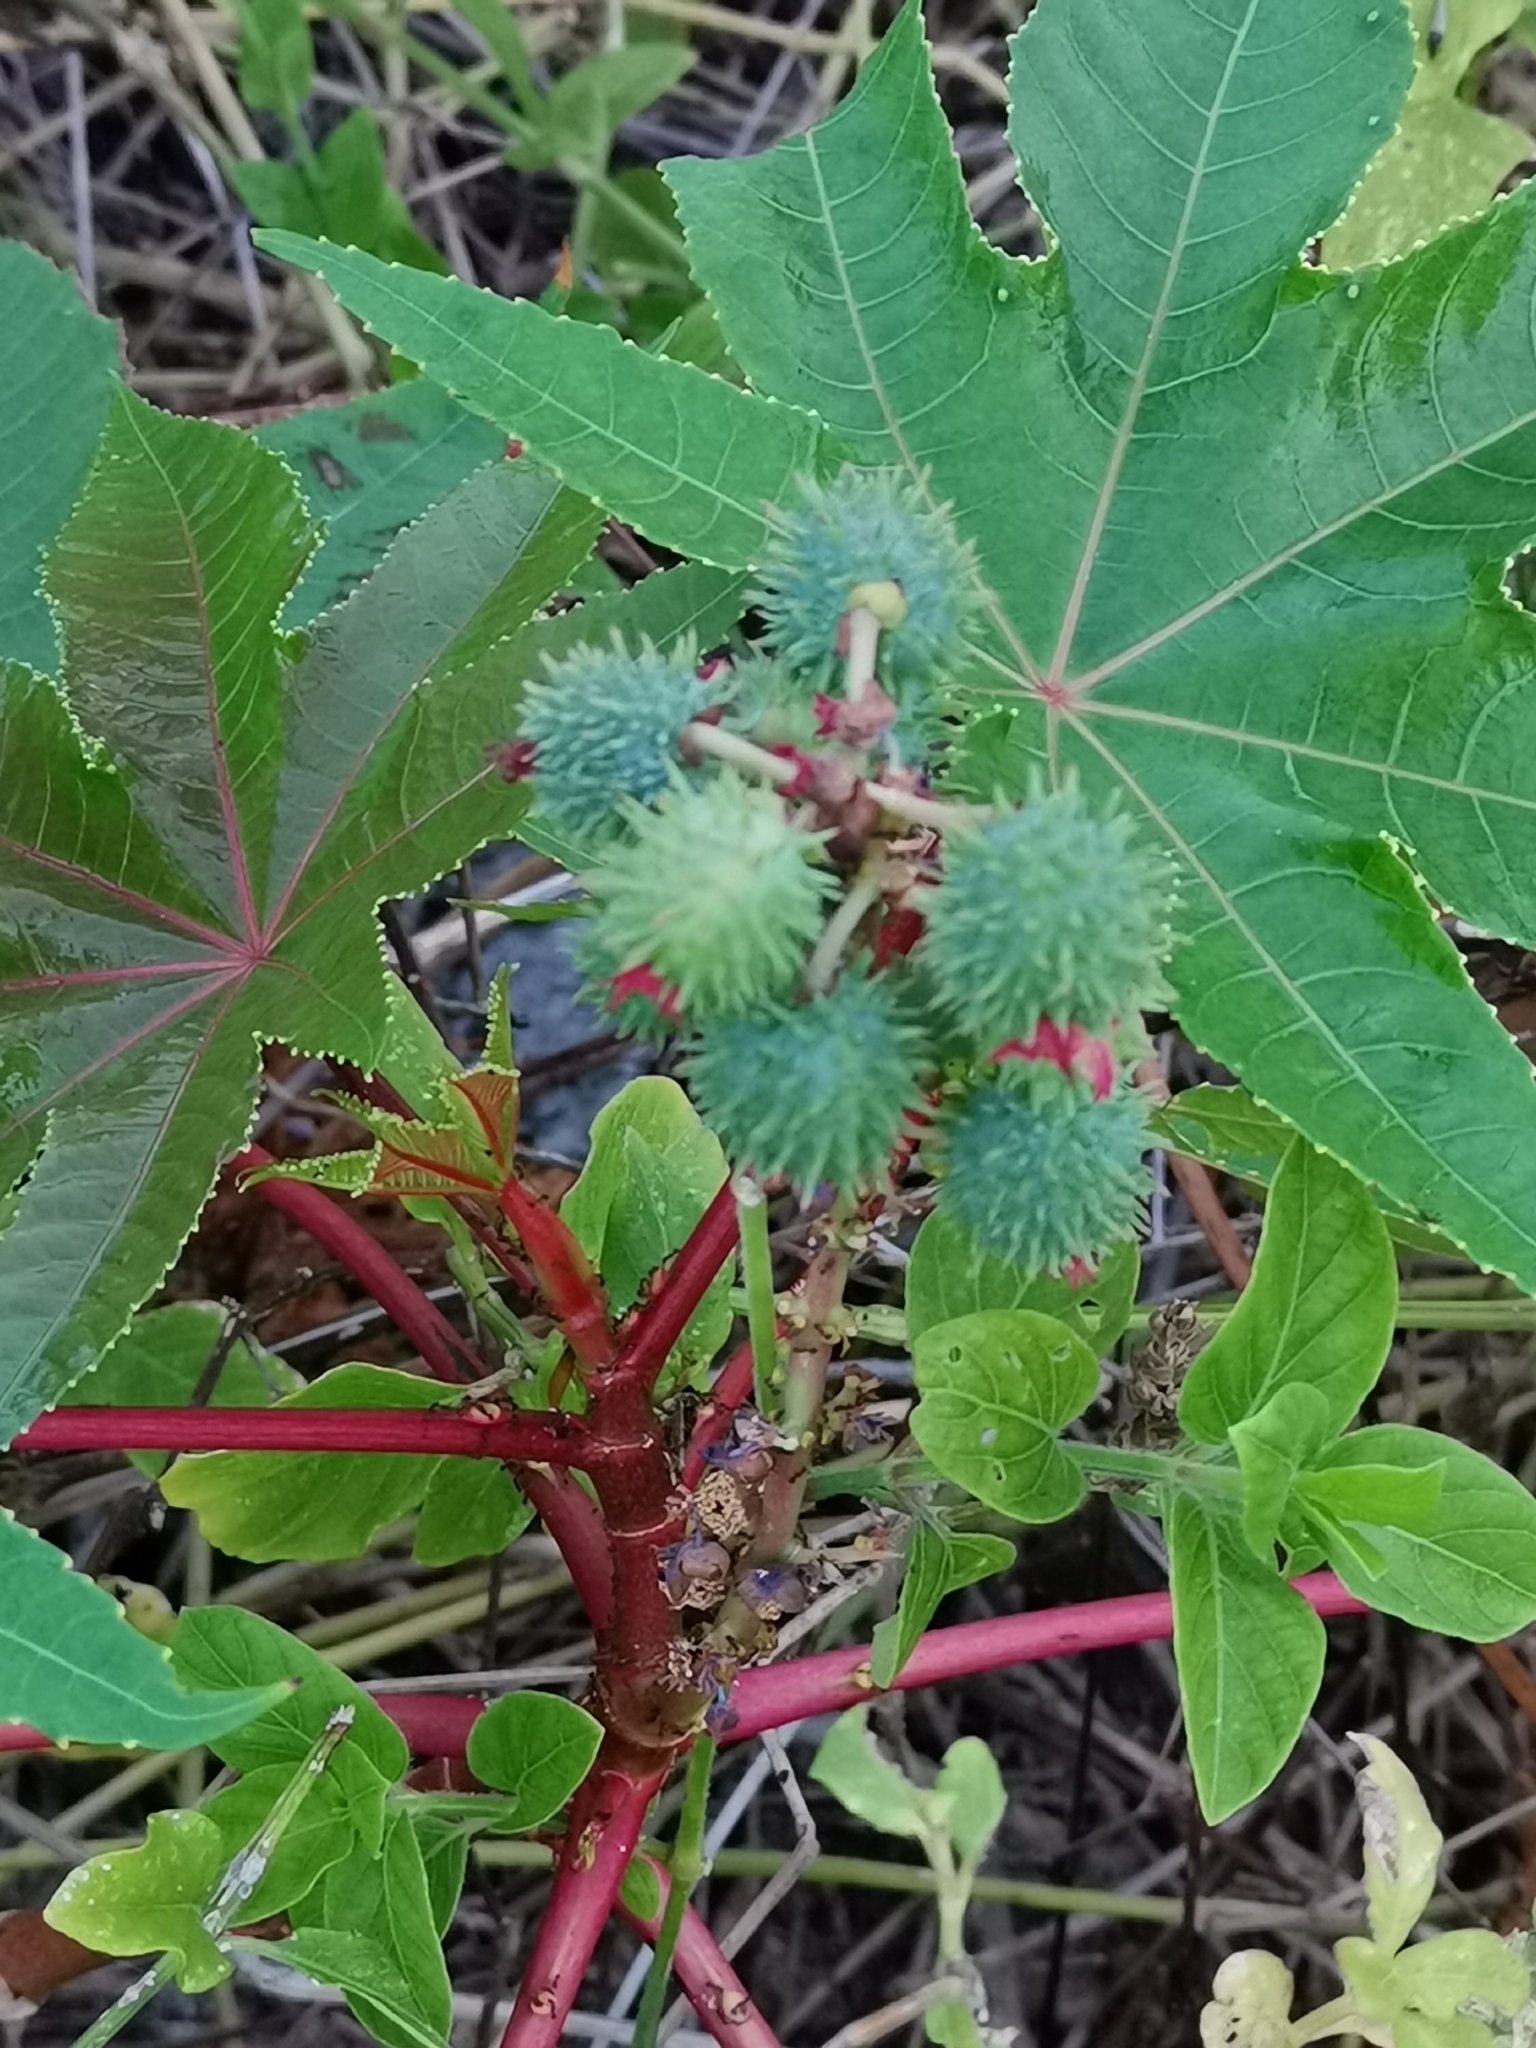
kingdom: Plantae
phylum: Tracheophyta
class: Magnoliopsida
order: Malpighiales
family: Euphorbiaceae
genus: Ricinus
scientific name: Ricinus communis
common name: Castor-oil-plant
